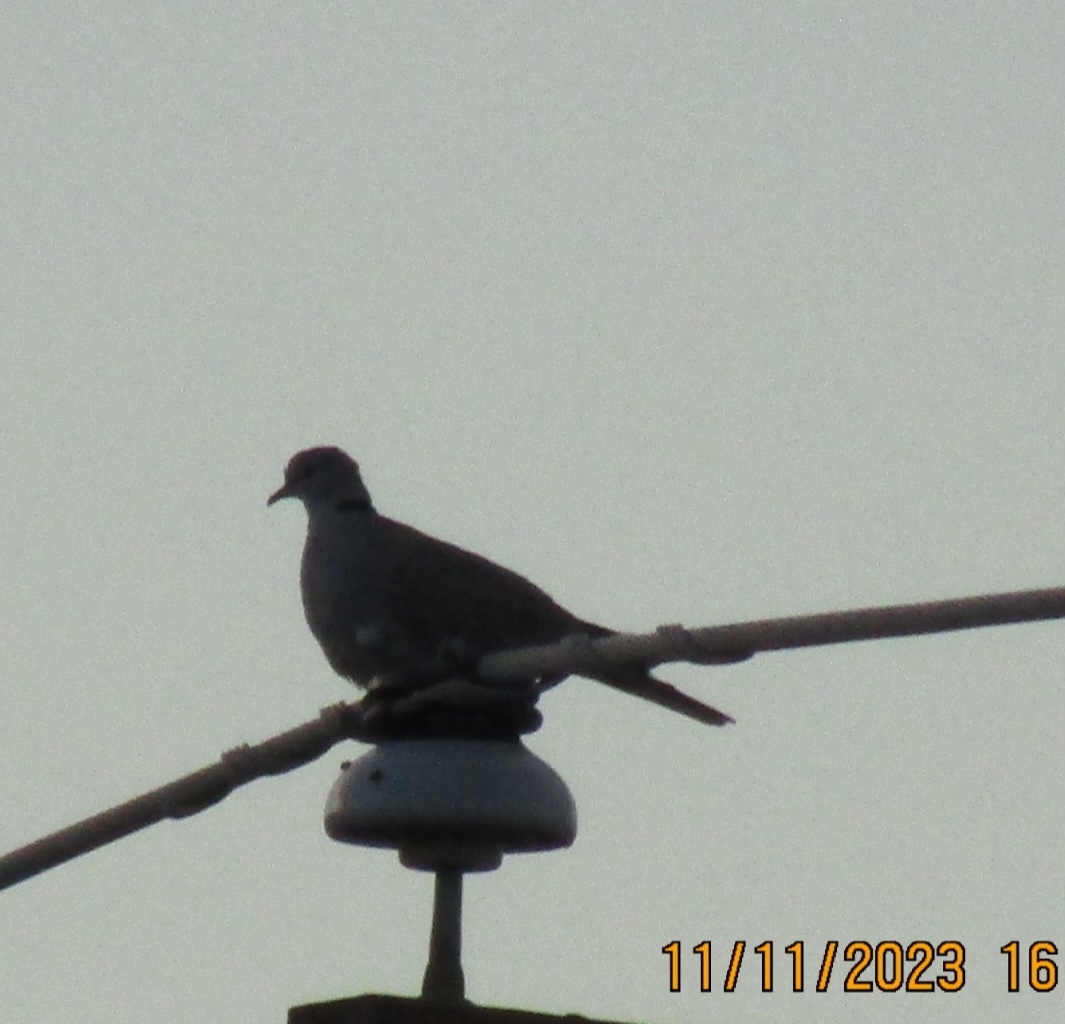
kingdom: Animalia
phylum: Chordata
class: Aves
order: Columbiformes
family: Columbidae
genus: Streptopelia
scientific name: Streptopelia decaocto
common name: Eurasian collared dove
